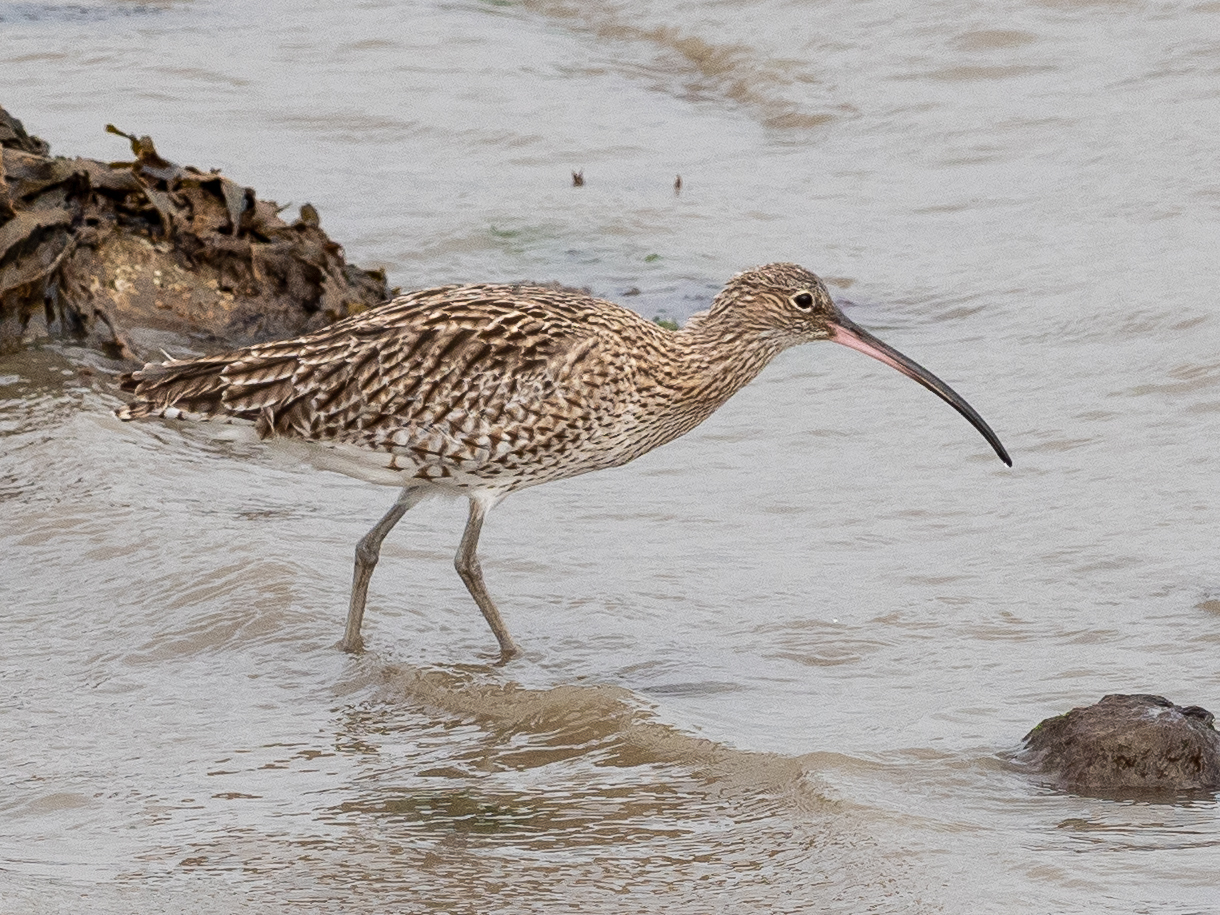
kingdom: Animalia
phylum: Chordata
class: Aves
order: Charadriiformes
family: Scolopacidae
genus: Numenius
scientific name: Numenius arquata
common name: Eurasian curlew
